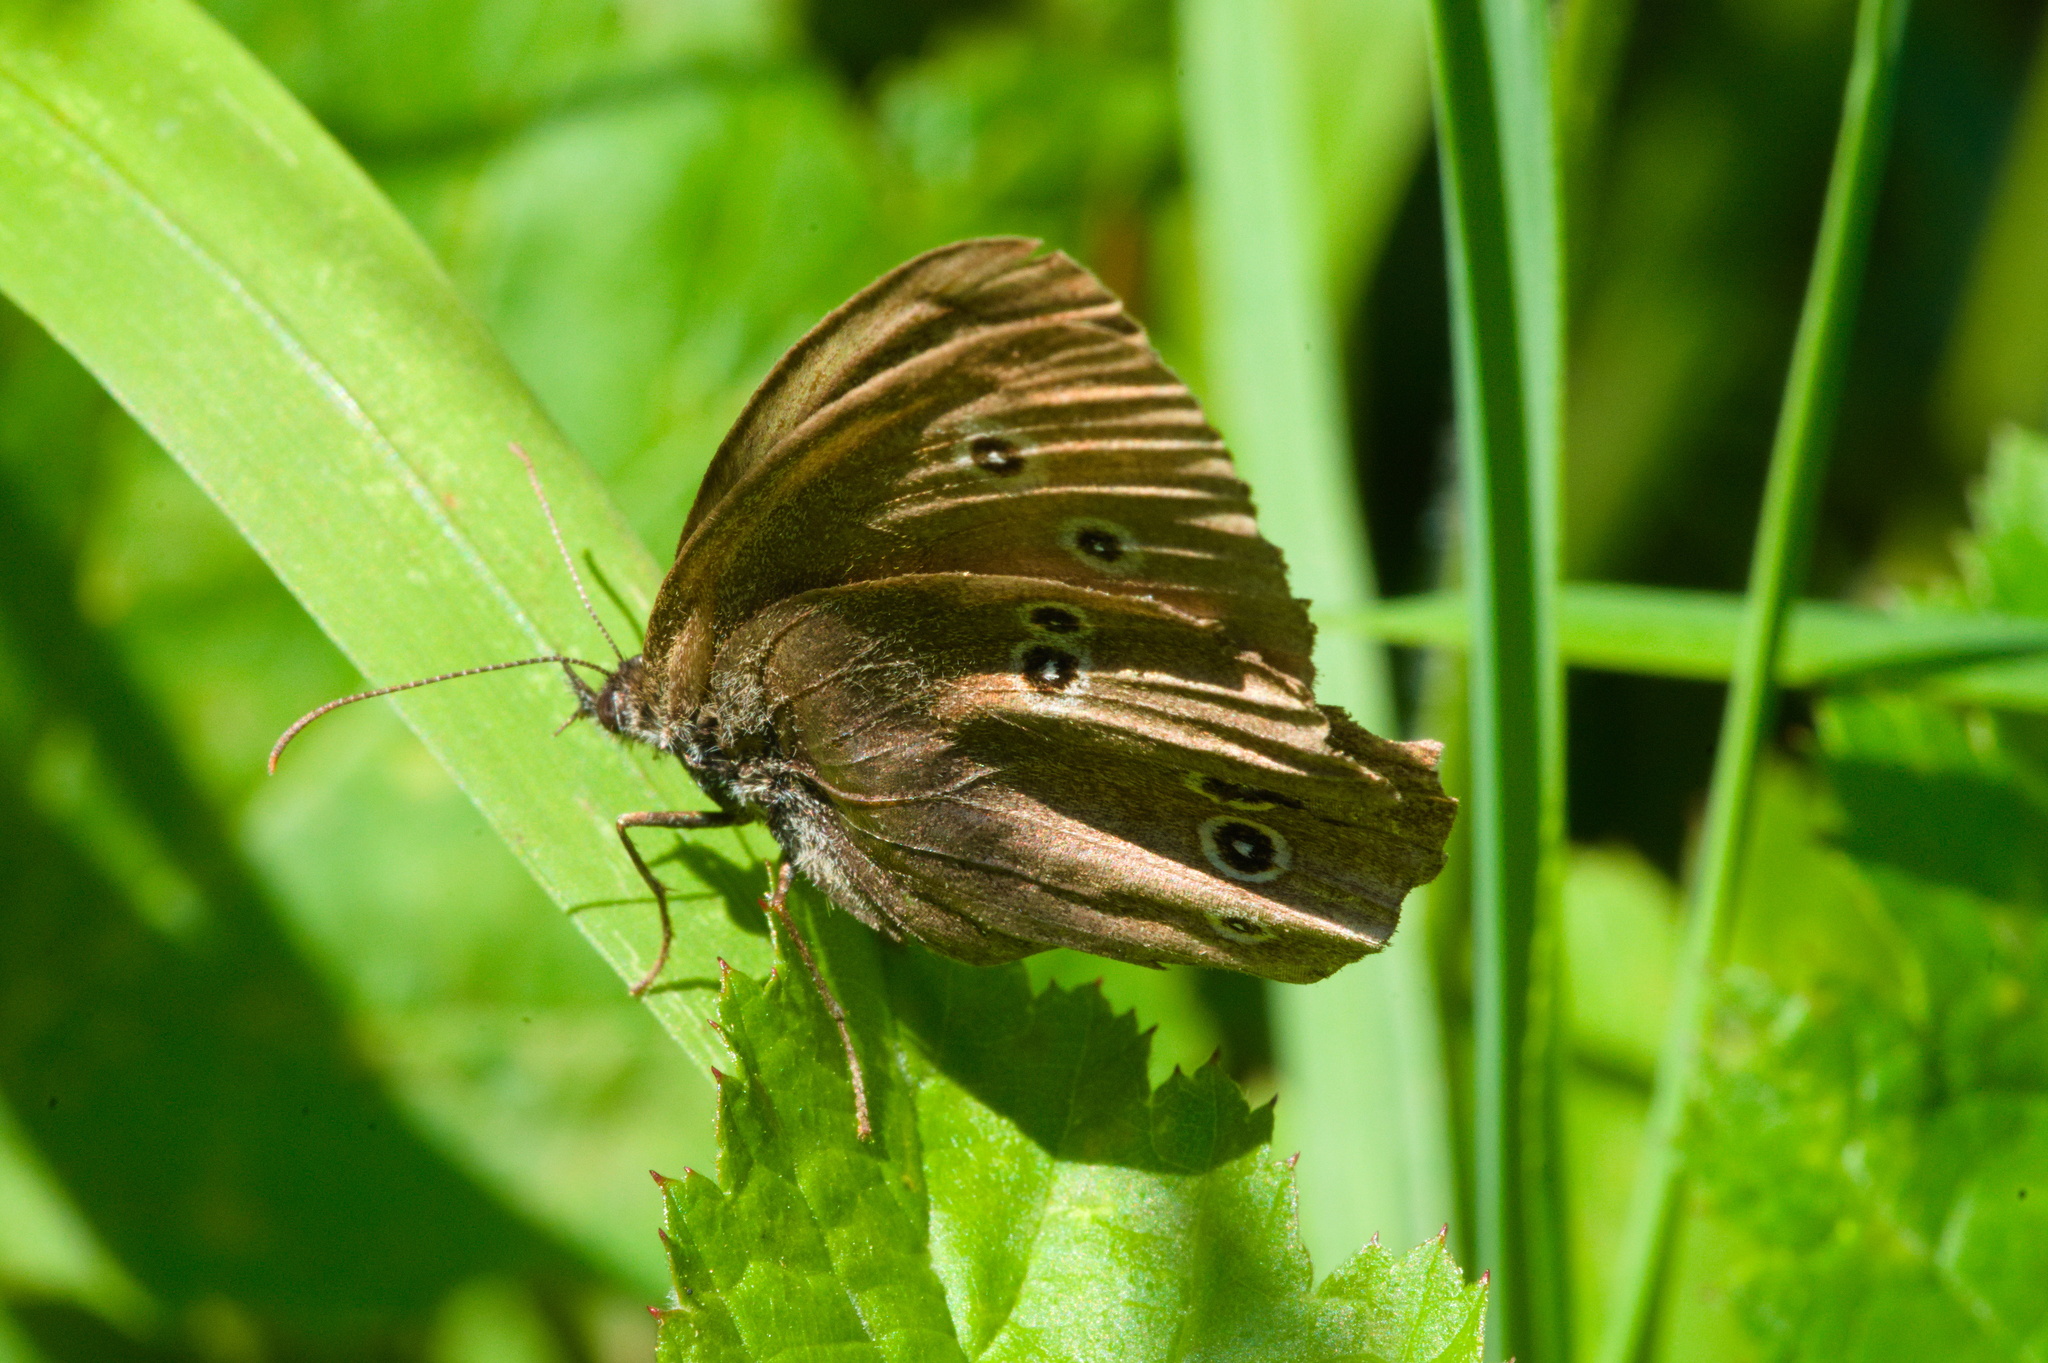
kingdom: Animalia
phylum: Arthropoda
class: Insecta
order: Lepidoptera
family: Nymphalidae
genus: Aphantopus
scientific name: Aphantopus hyperantus
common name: Ringlet
